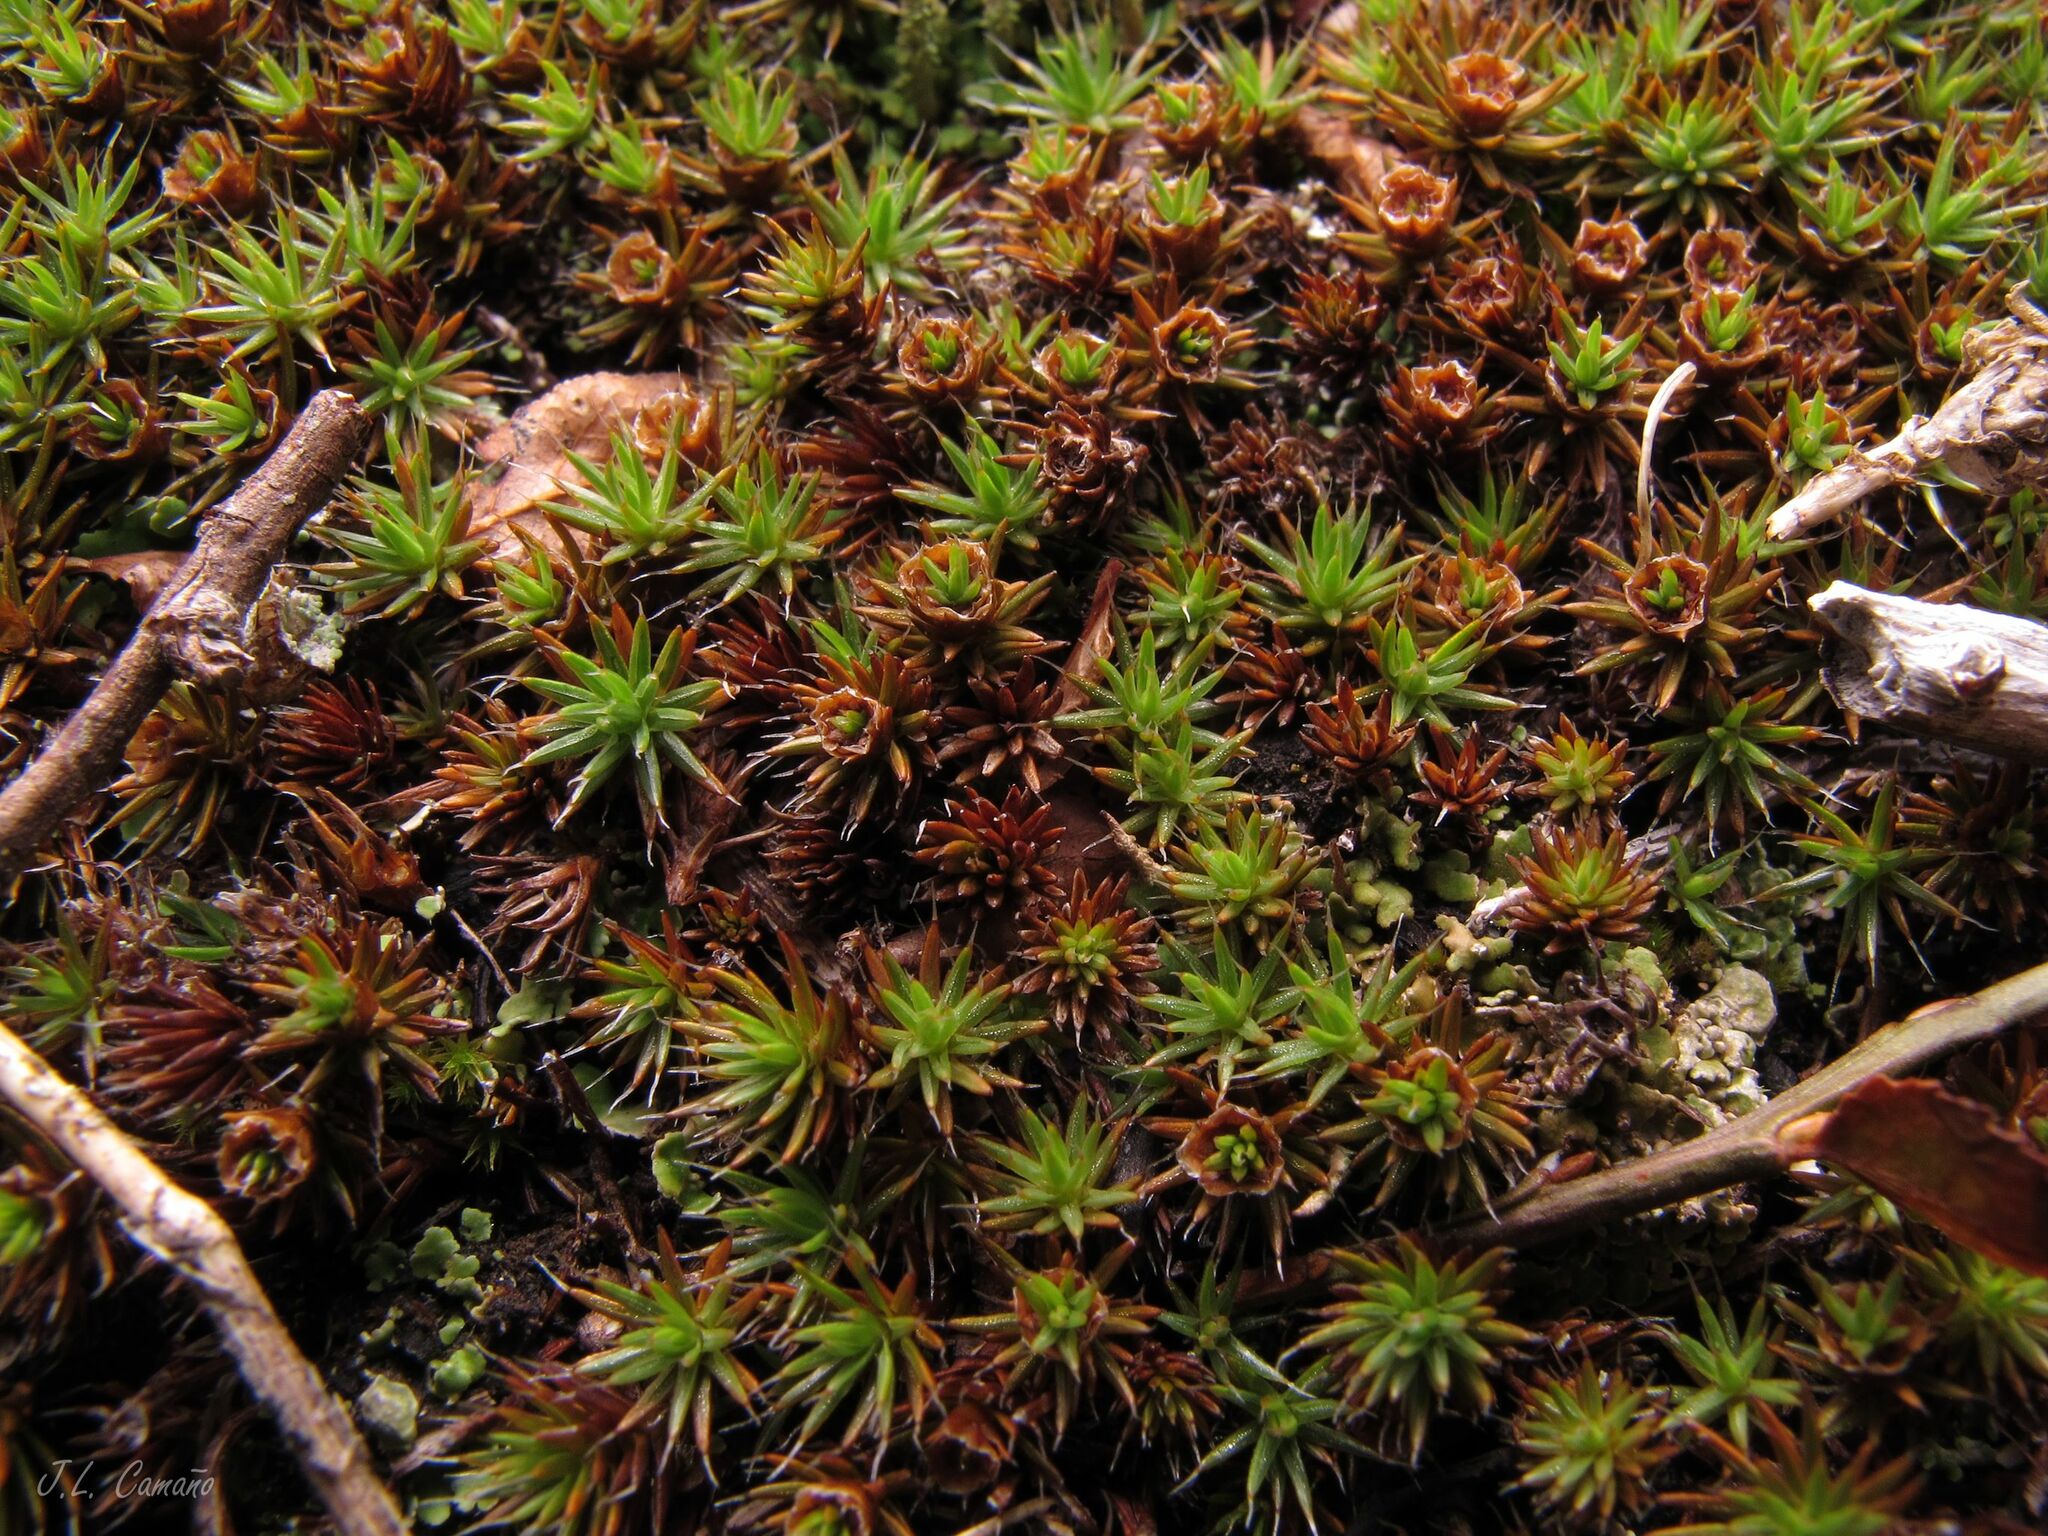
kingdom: Plantae
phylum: Bryophyta
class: Polytrichopsida
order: Polytrichales
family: Polytrichaceae
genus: Polytrichum
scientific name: Polytrichum piliferum
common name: Bristly haircap
